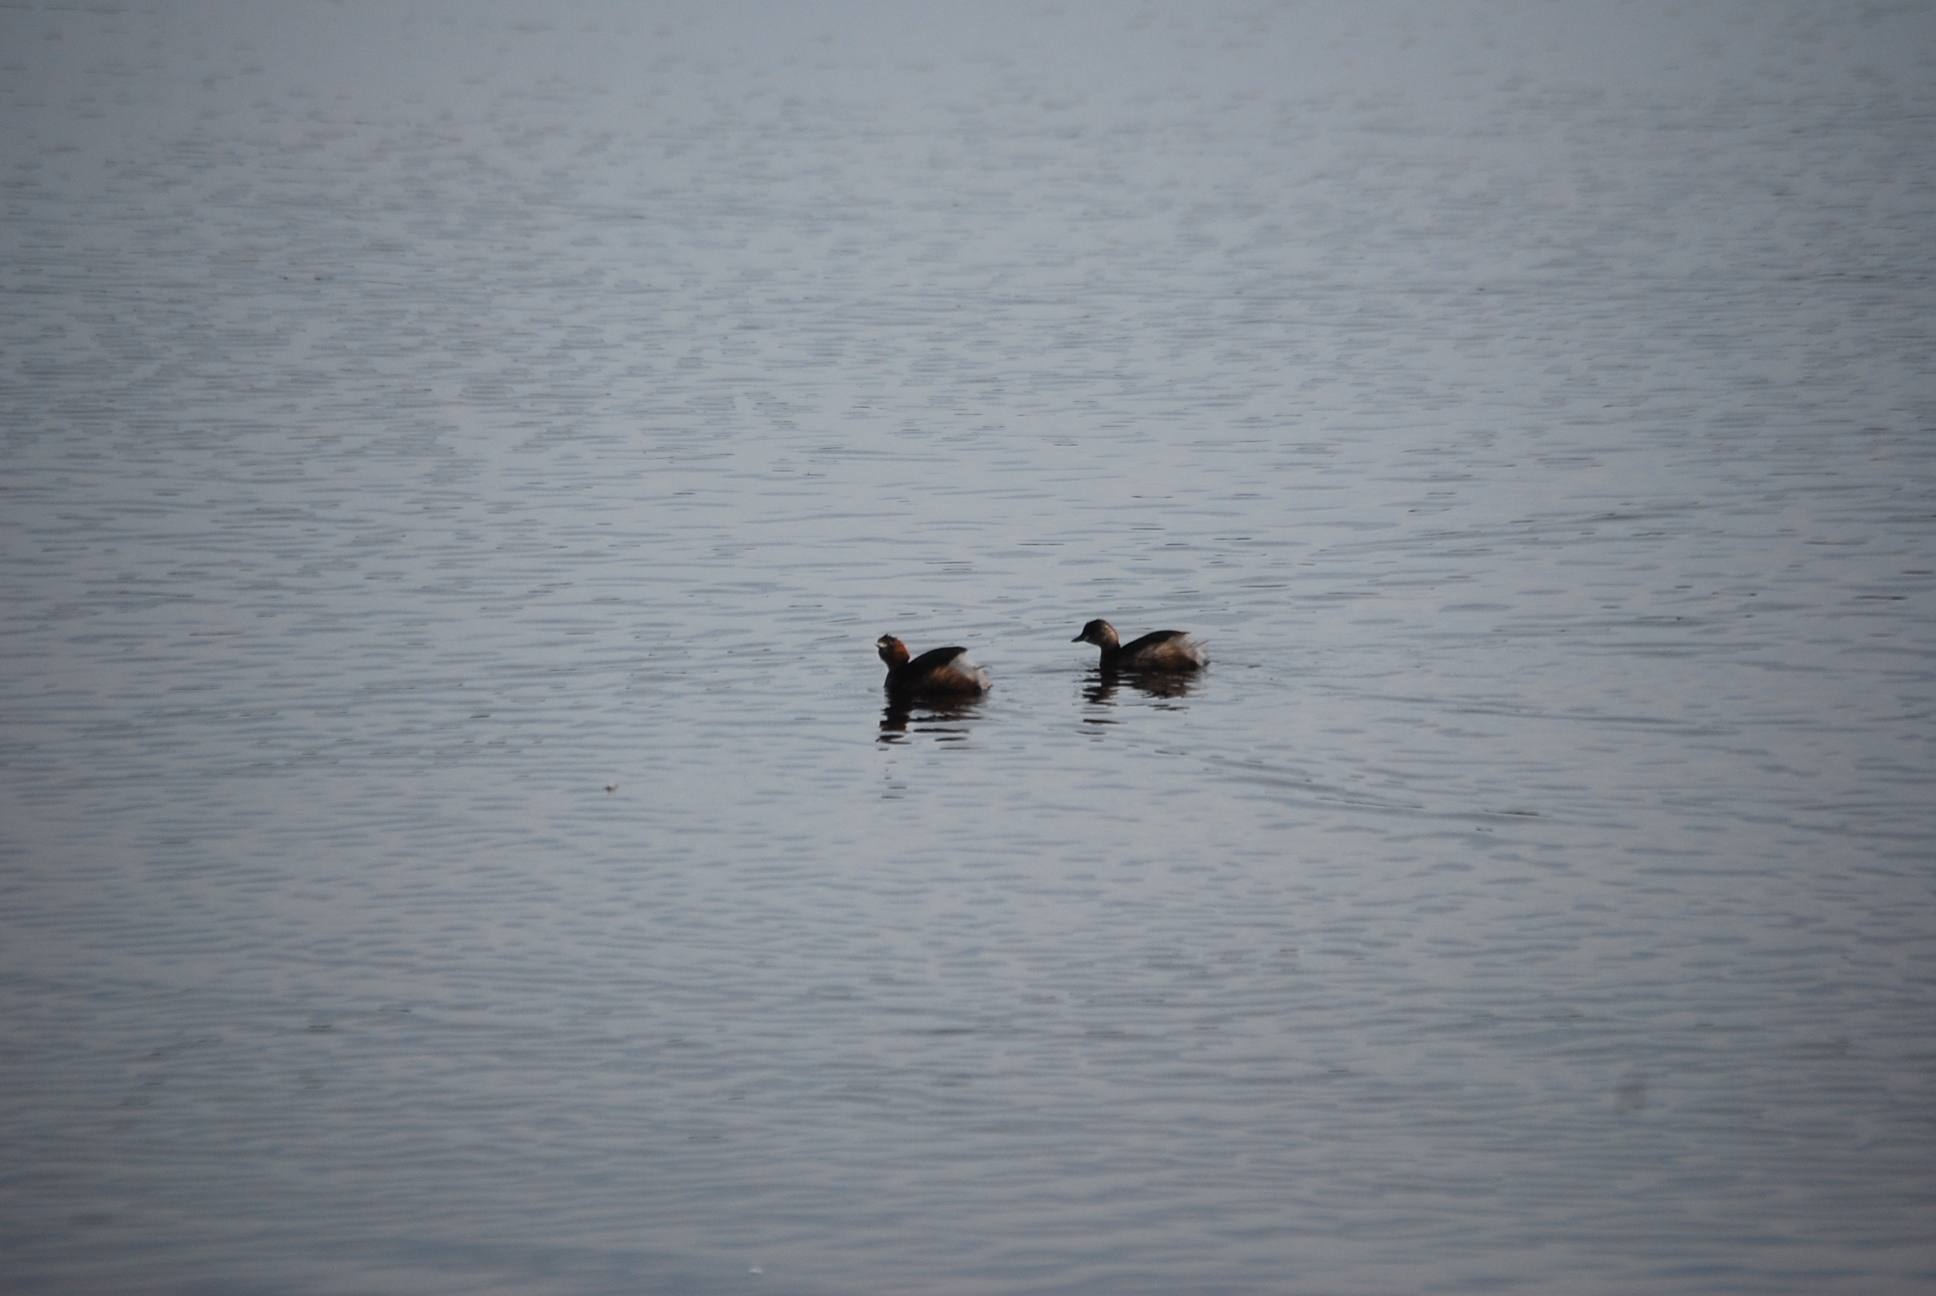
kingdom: Animalia
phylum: Chordata
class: Aves
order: Podicipediformes
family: Podicipedidae
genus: Tachybaptus
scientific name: Tachybaptus ruficollis
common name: Little grebe
